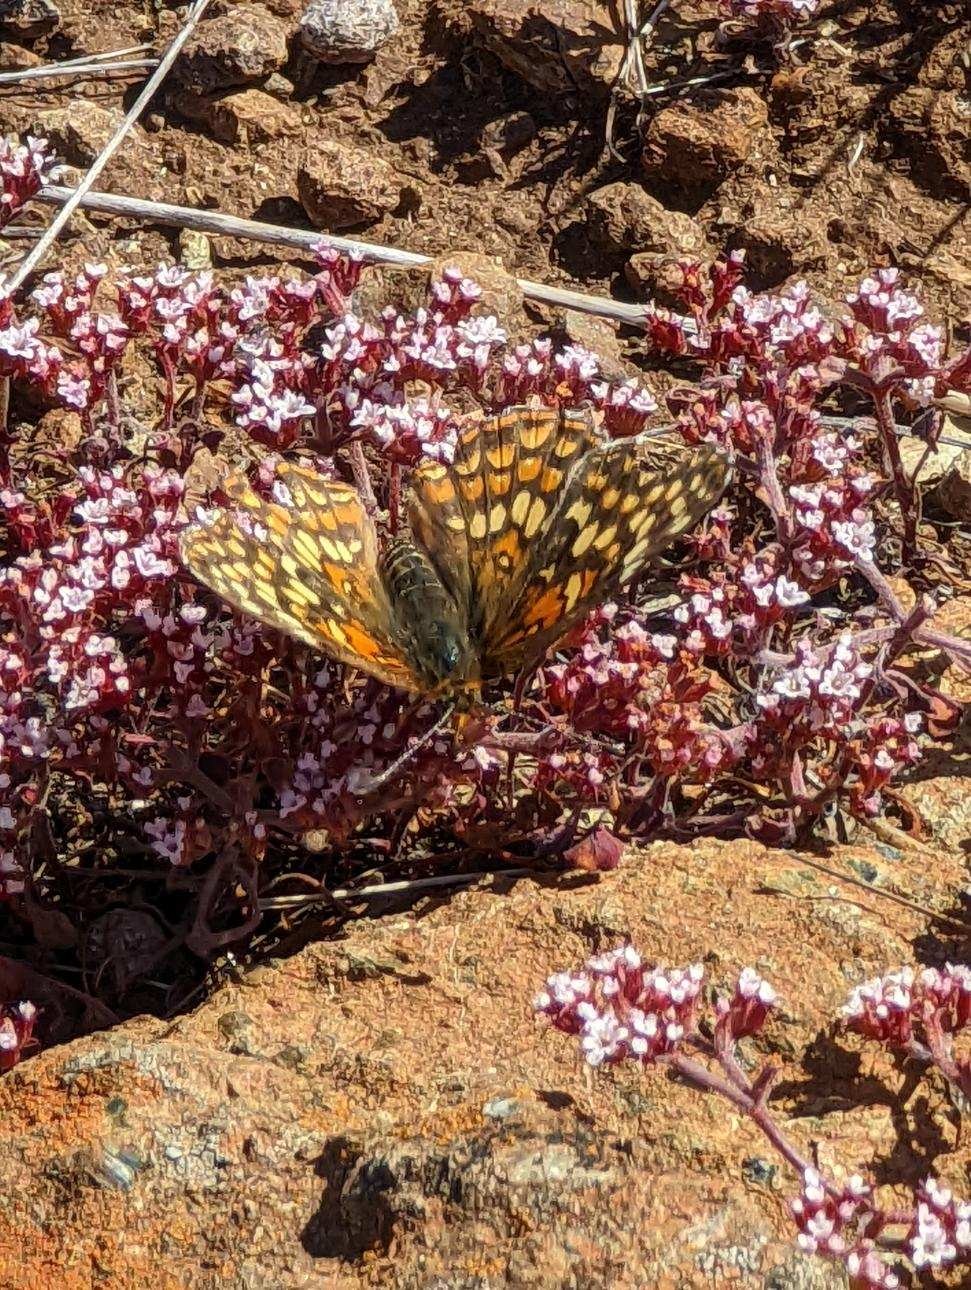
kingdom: Animalia
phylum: Arthropoda
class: Insecta
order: Lepidoptera
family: Nymphalidae
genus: Chlosyne
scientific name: Chlosyne gabbii
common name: Gabb's checkerspot
